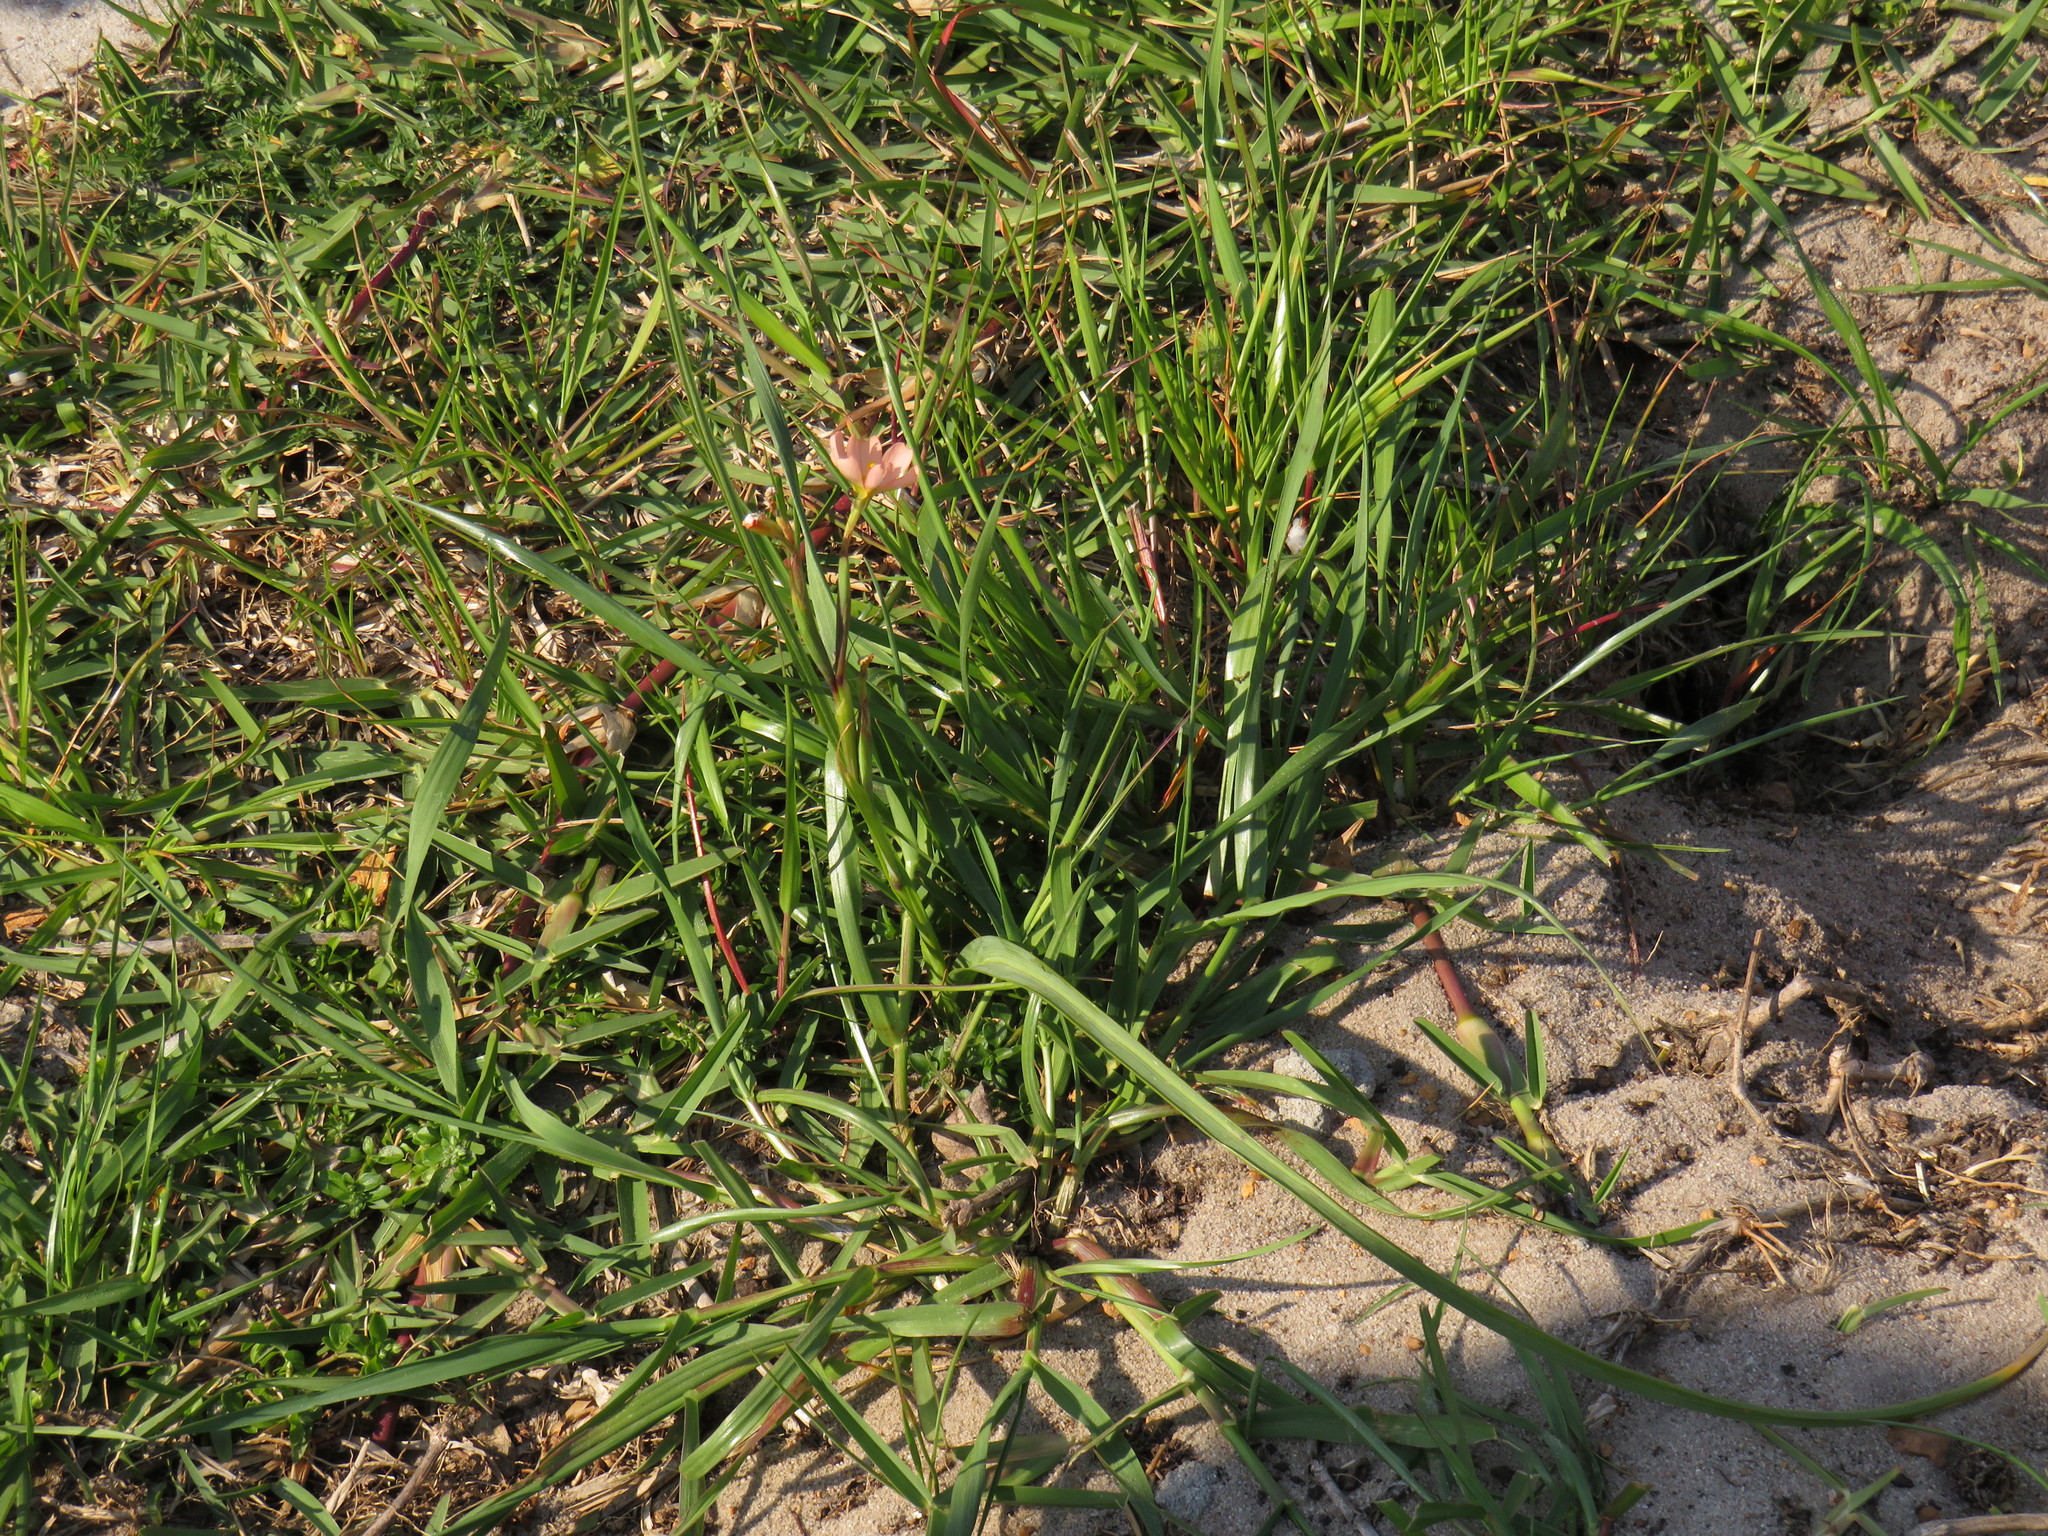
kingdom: Plantae
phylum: Tracheophyta
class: Liliopsida
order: Asparagales
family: Iridaceae
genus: Moraea
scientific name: Moraea miniata
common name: Two-leaf cape-tulip
